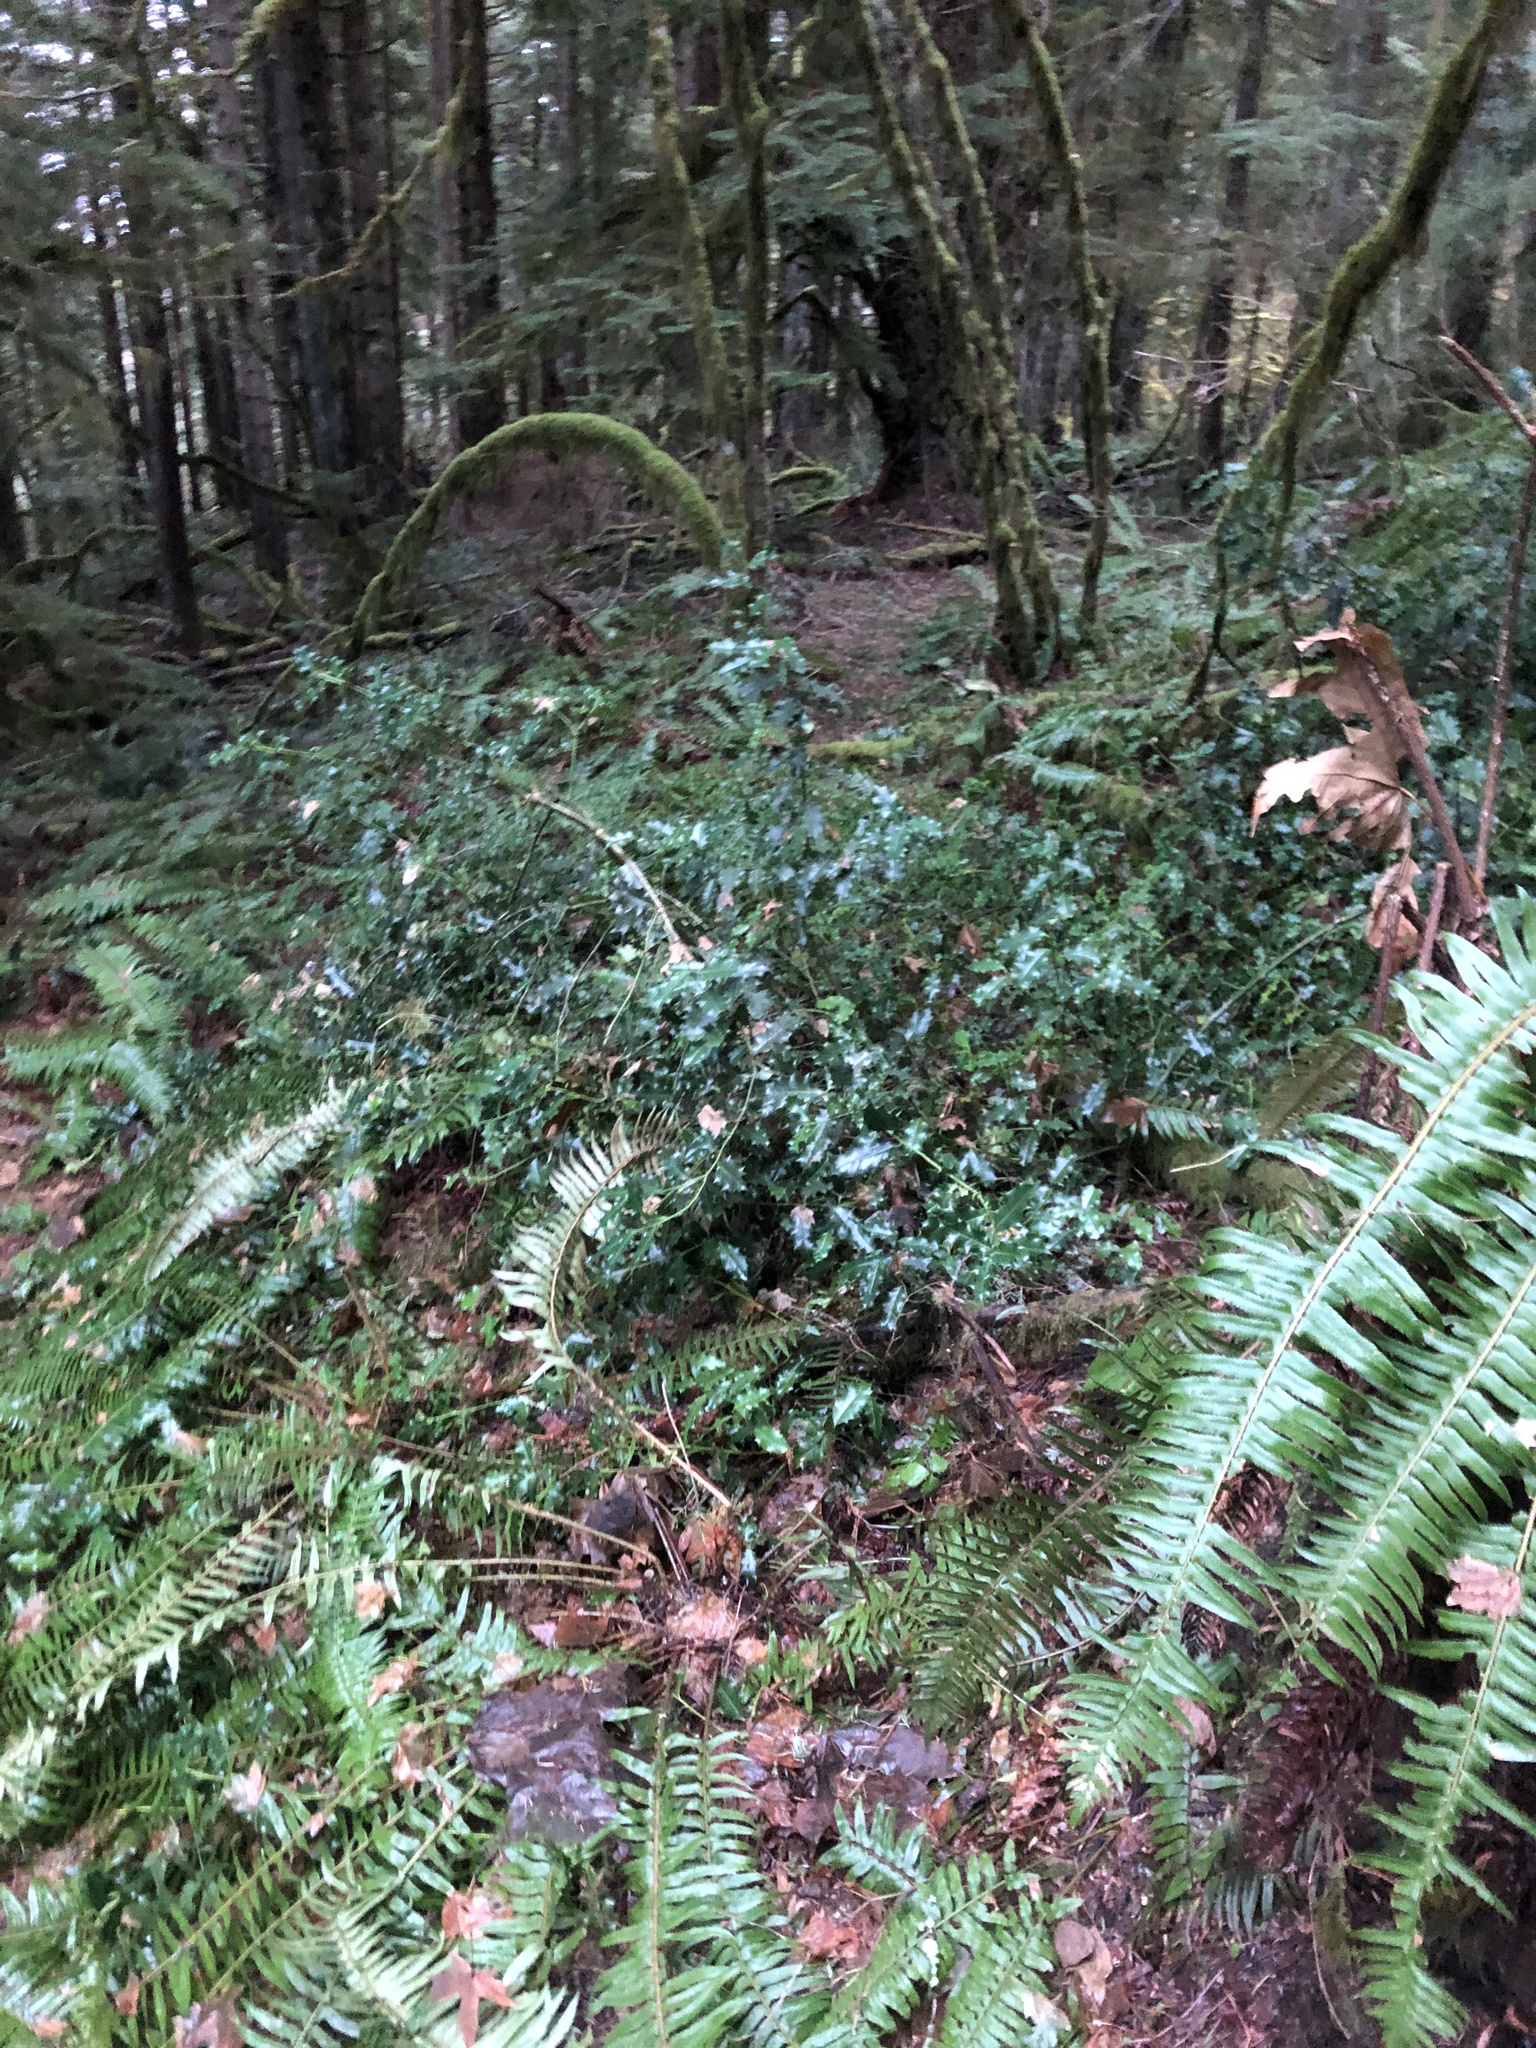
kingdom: Plantae
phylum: Tracheophyta
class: Magnoliopsida
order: Aquifoliales
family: Aquifoliaceae
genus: Ilex
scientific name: Ilex aquifolium
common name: English holly
